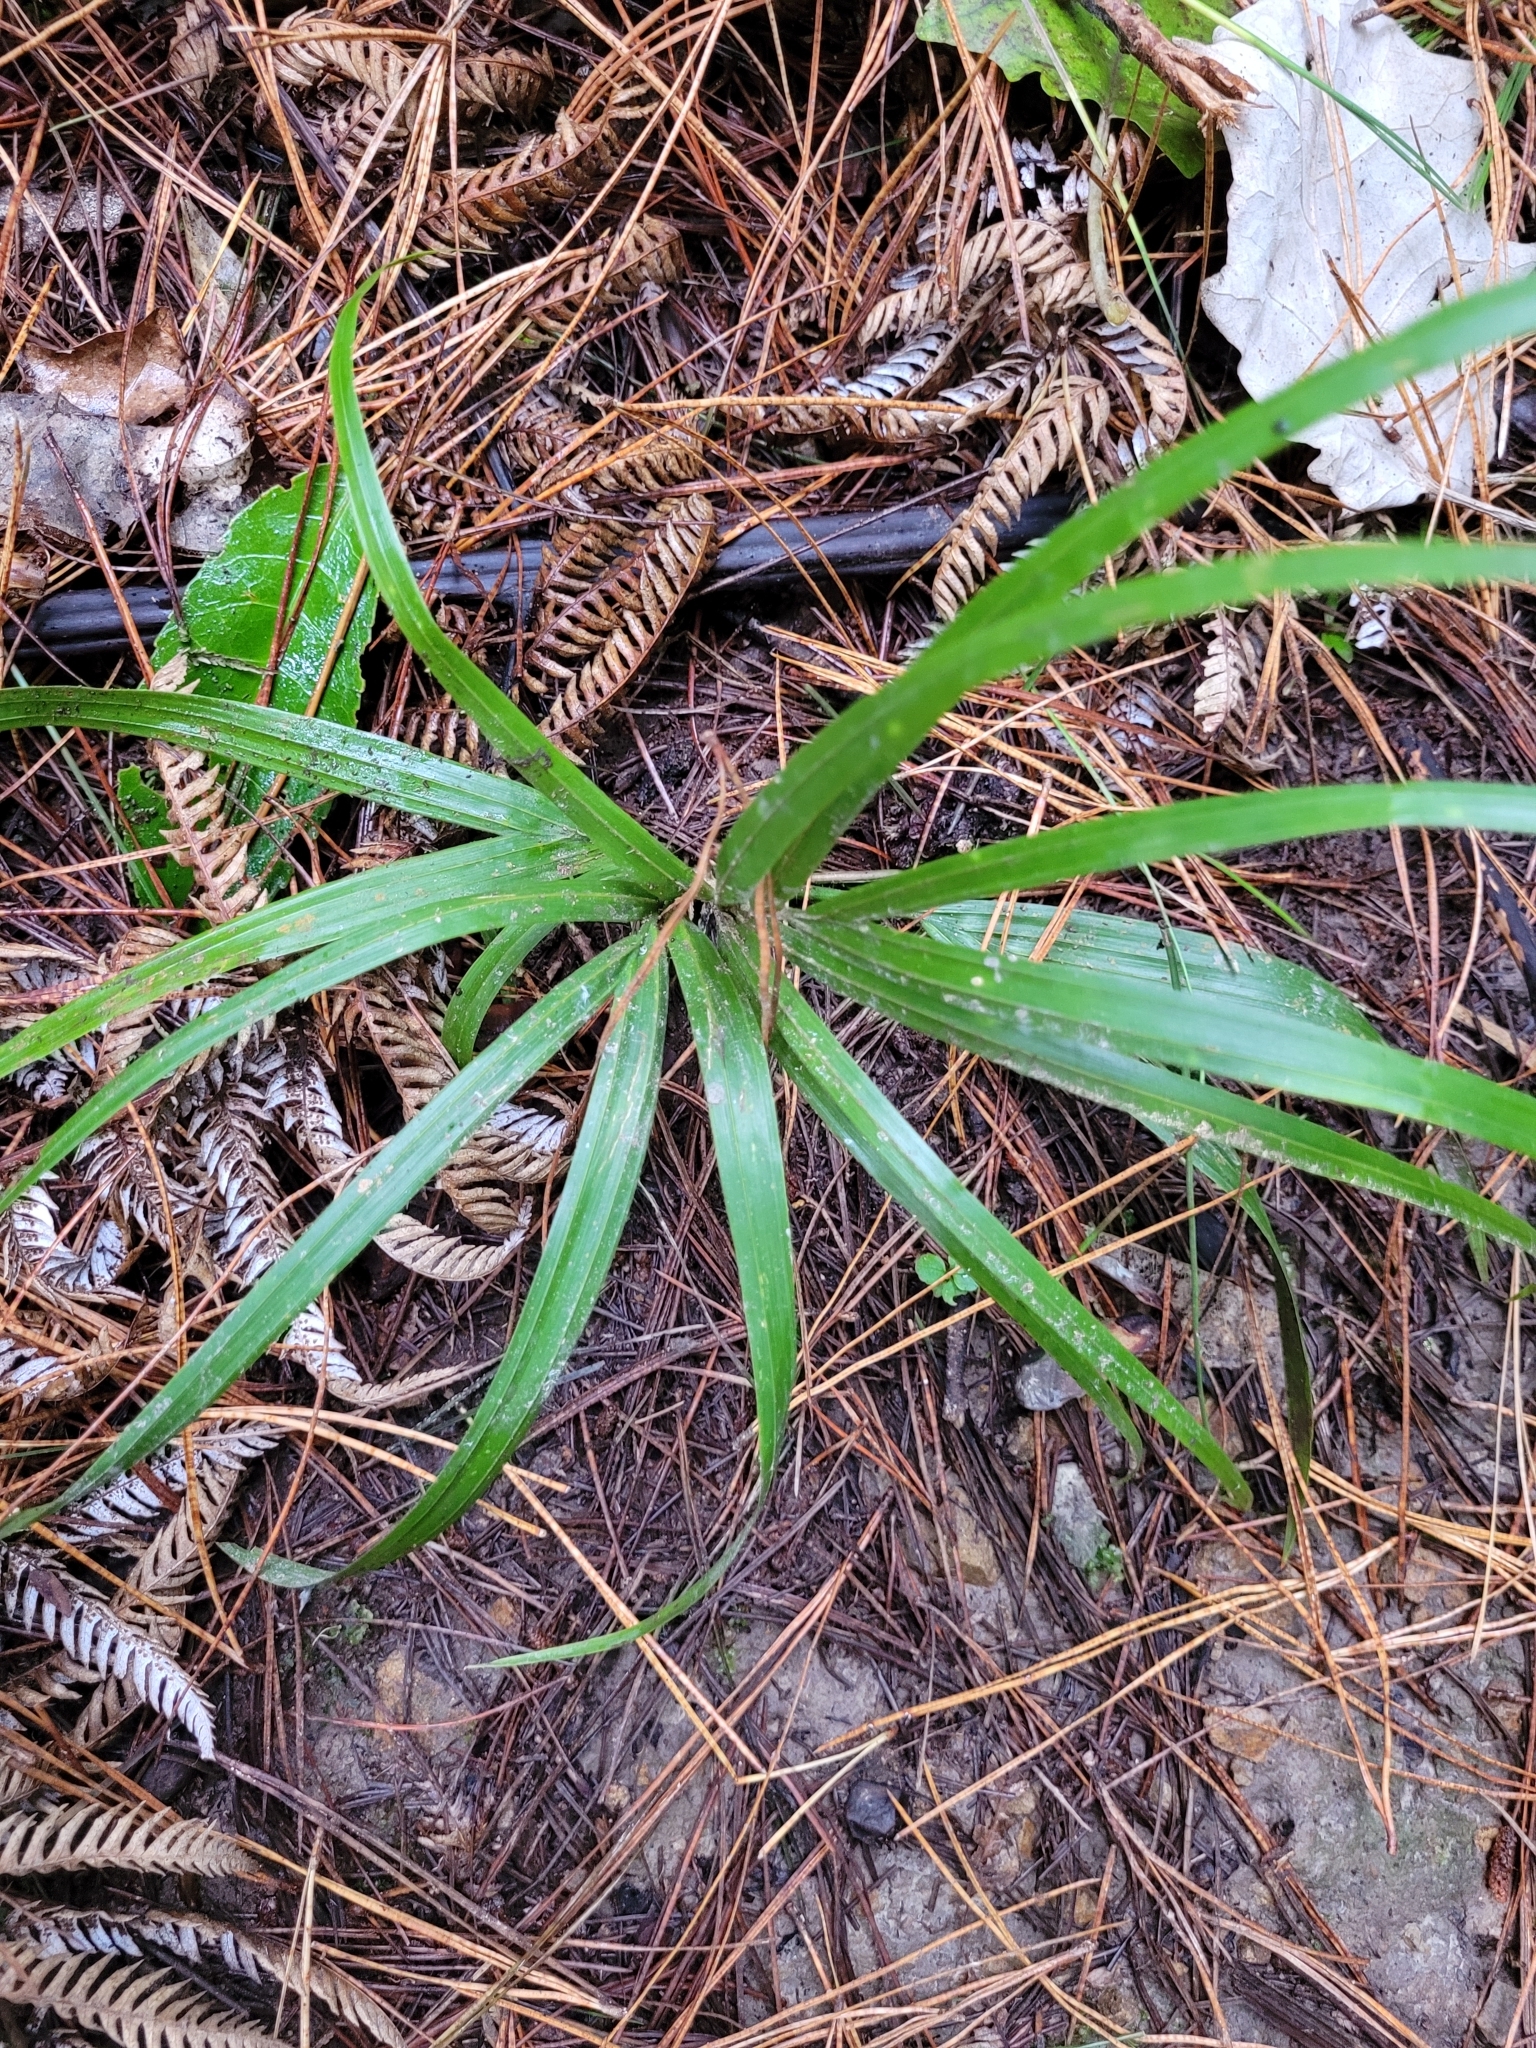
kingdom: Plantae
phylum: Tracheophyta
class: Liliopsida
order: Arecales
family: Arecaceae
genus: Rhopalostylis
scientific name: Rhopalostylis sapida
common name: Feather-duster palm
